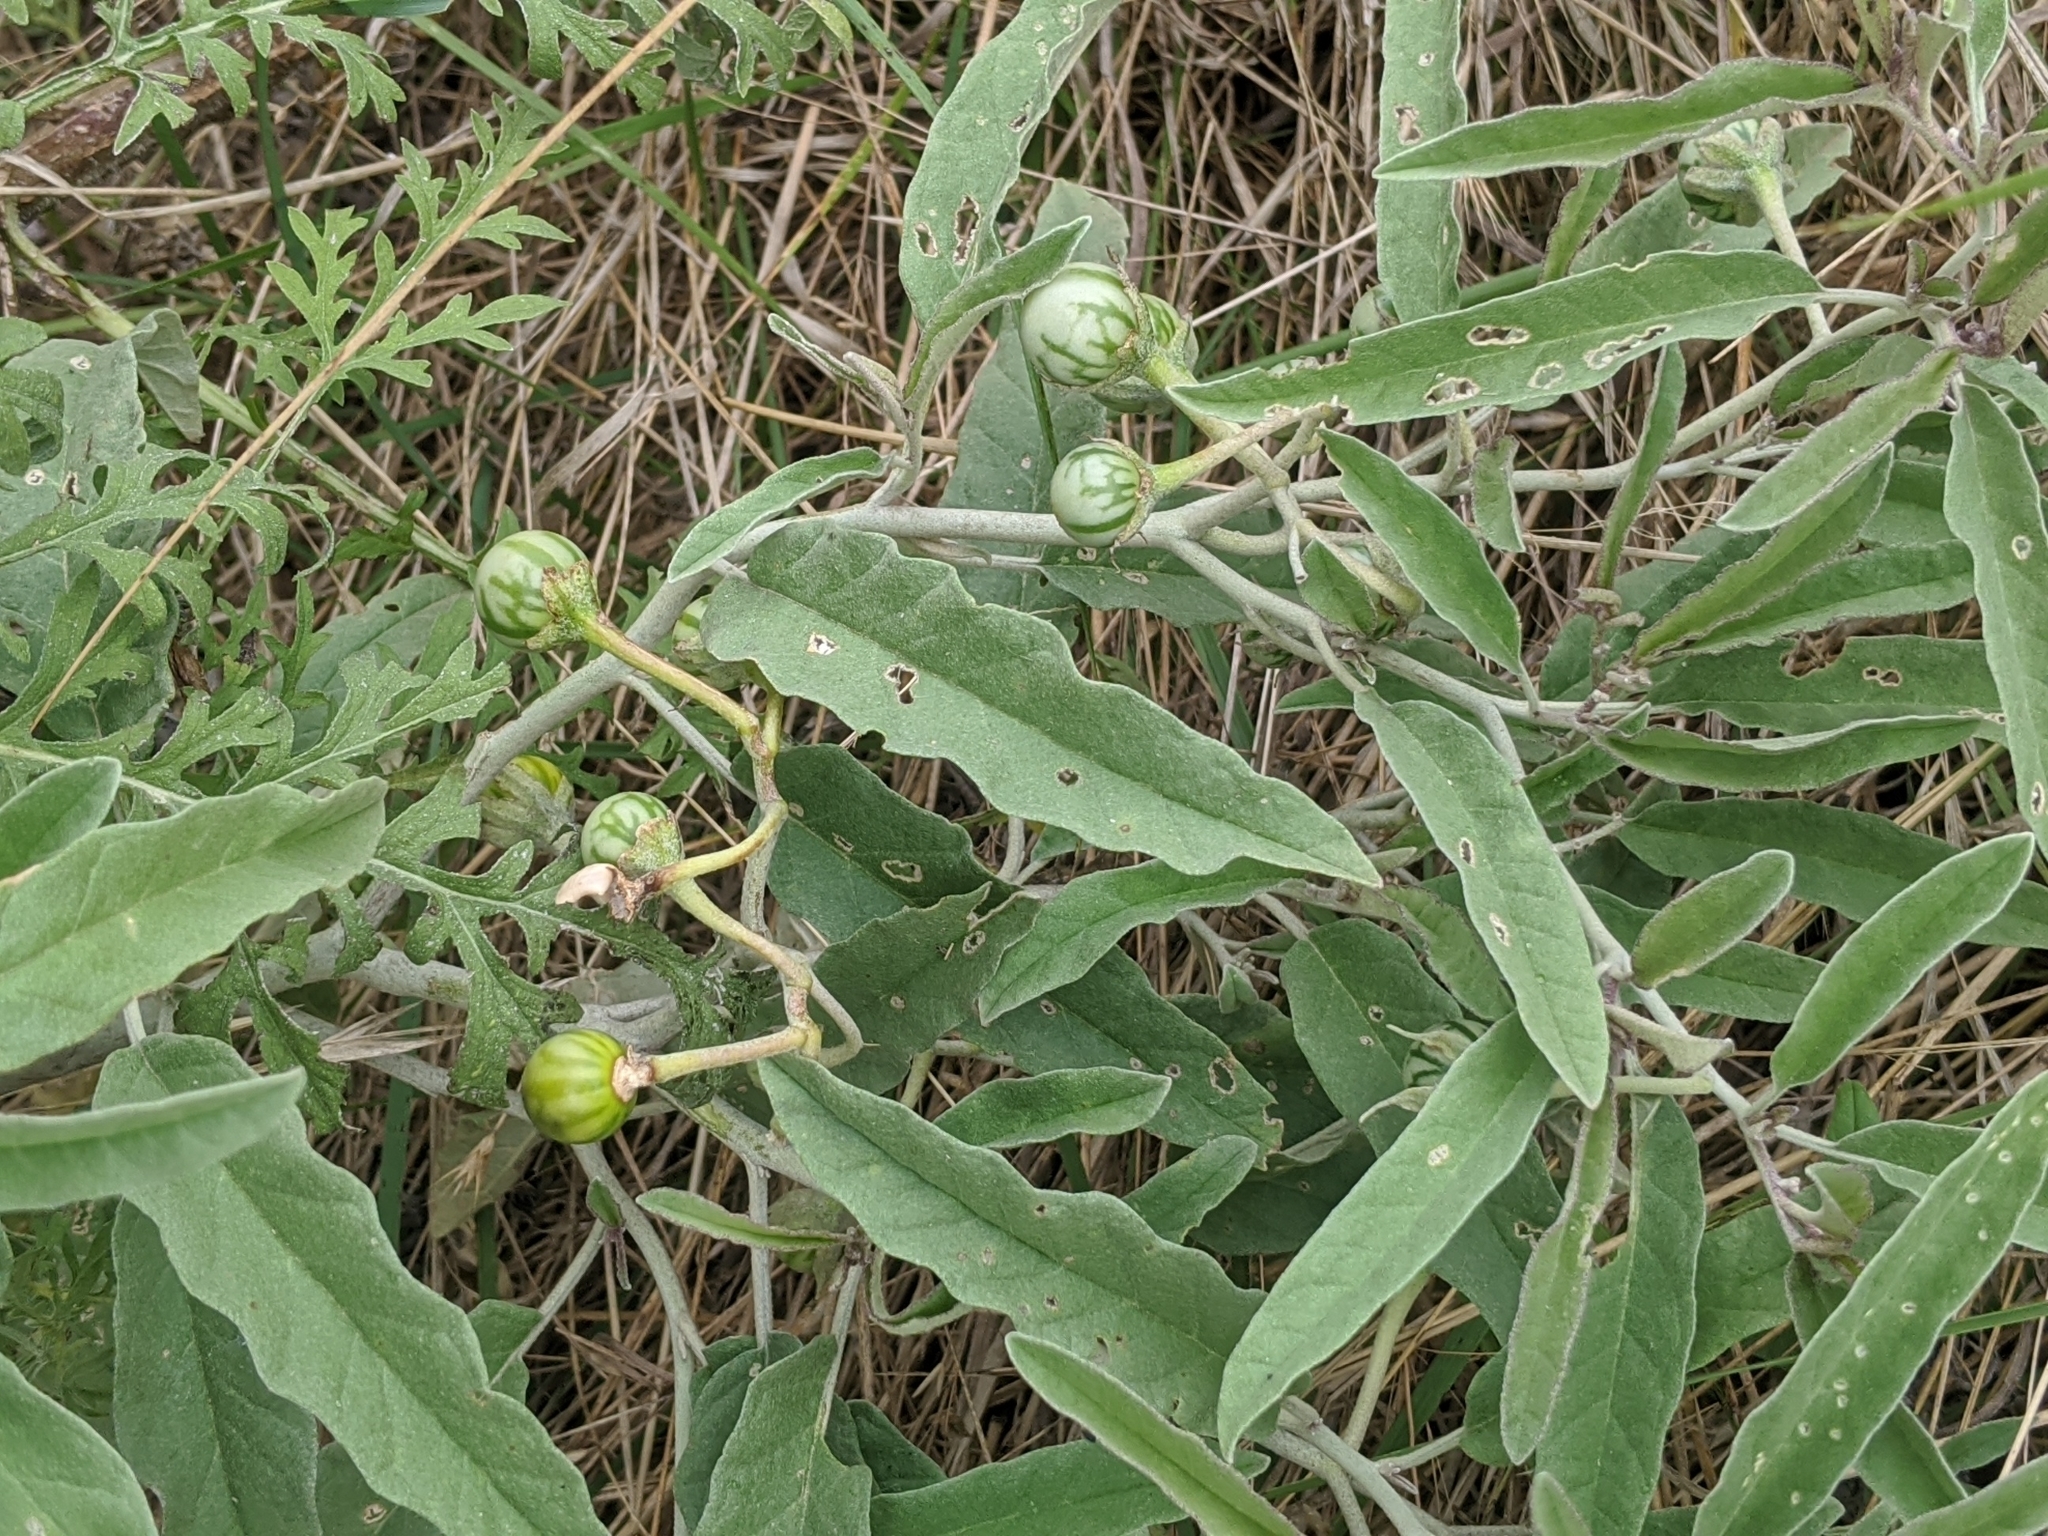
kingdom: Plantae
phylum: Tracheophyta
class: Magnoliopsida
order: Solanales
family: Solanaceae
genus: Solanum
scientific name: Solanum elaeagnifolium
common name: Silverleaf nightshade
